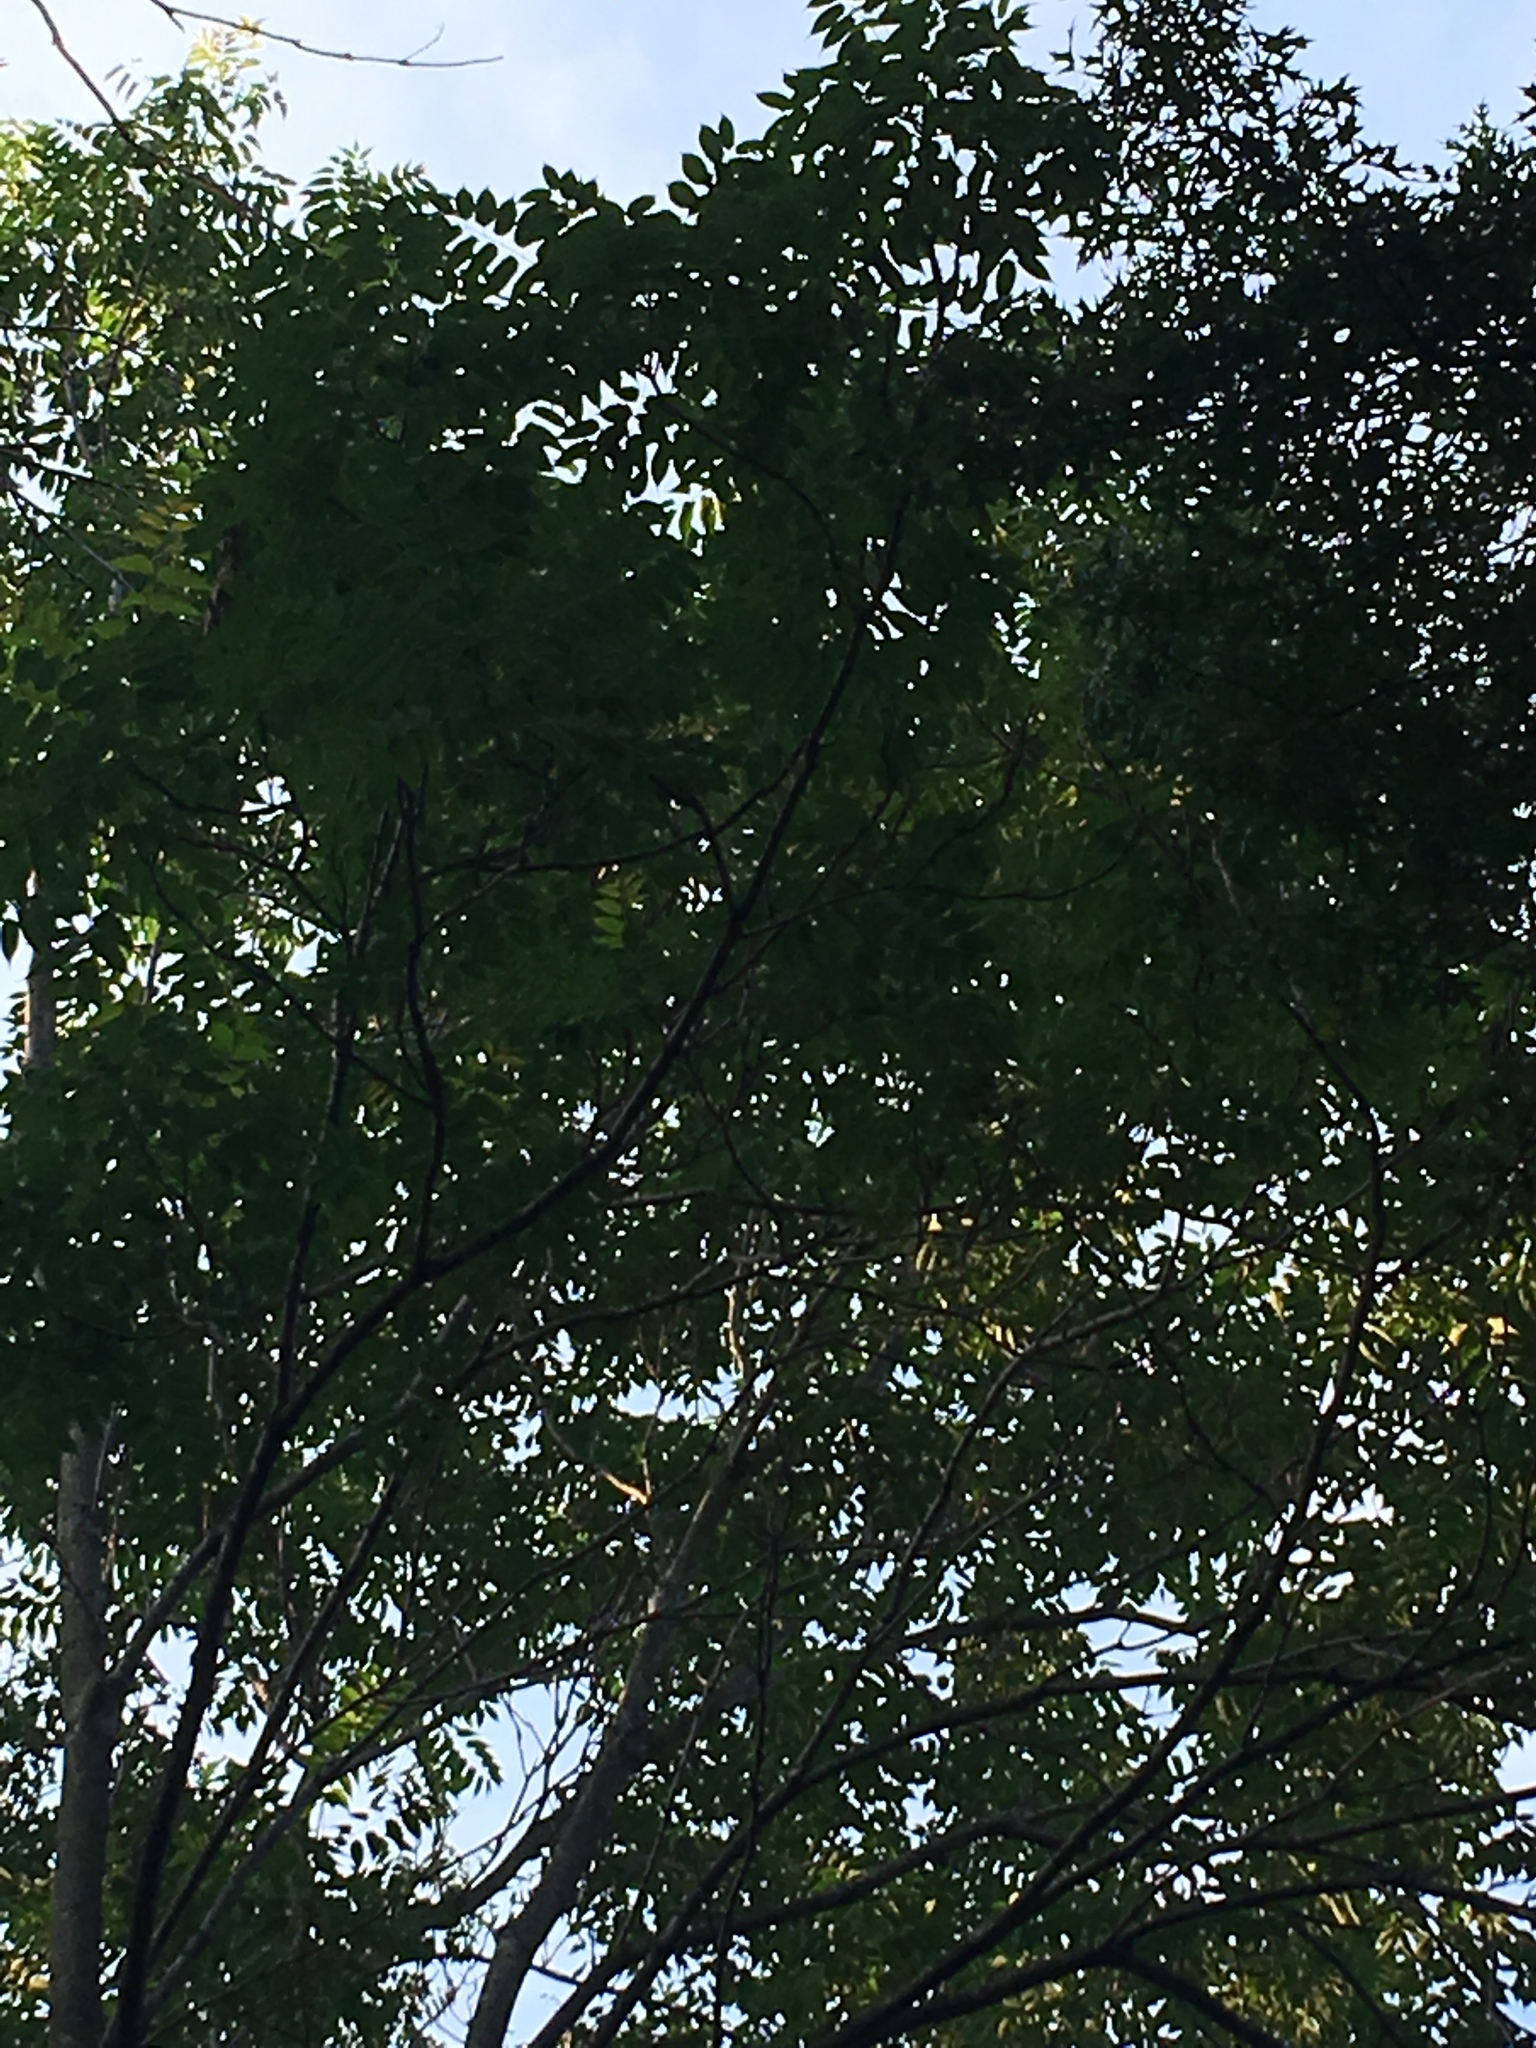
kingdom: Plantae
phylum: Tracheophyta
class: Magnoliopsida
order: Sapindales
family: Simaroubaceae
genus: Ailanthus
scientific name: Ailanthus altissima
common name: Tree-of-heaven
